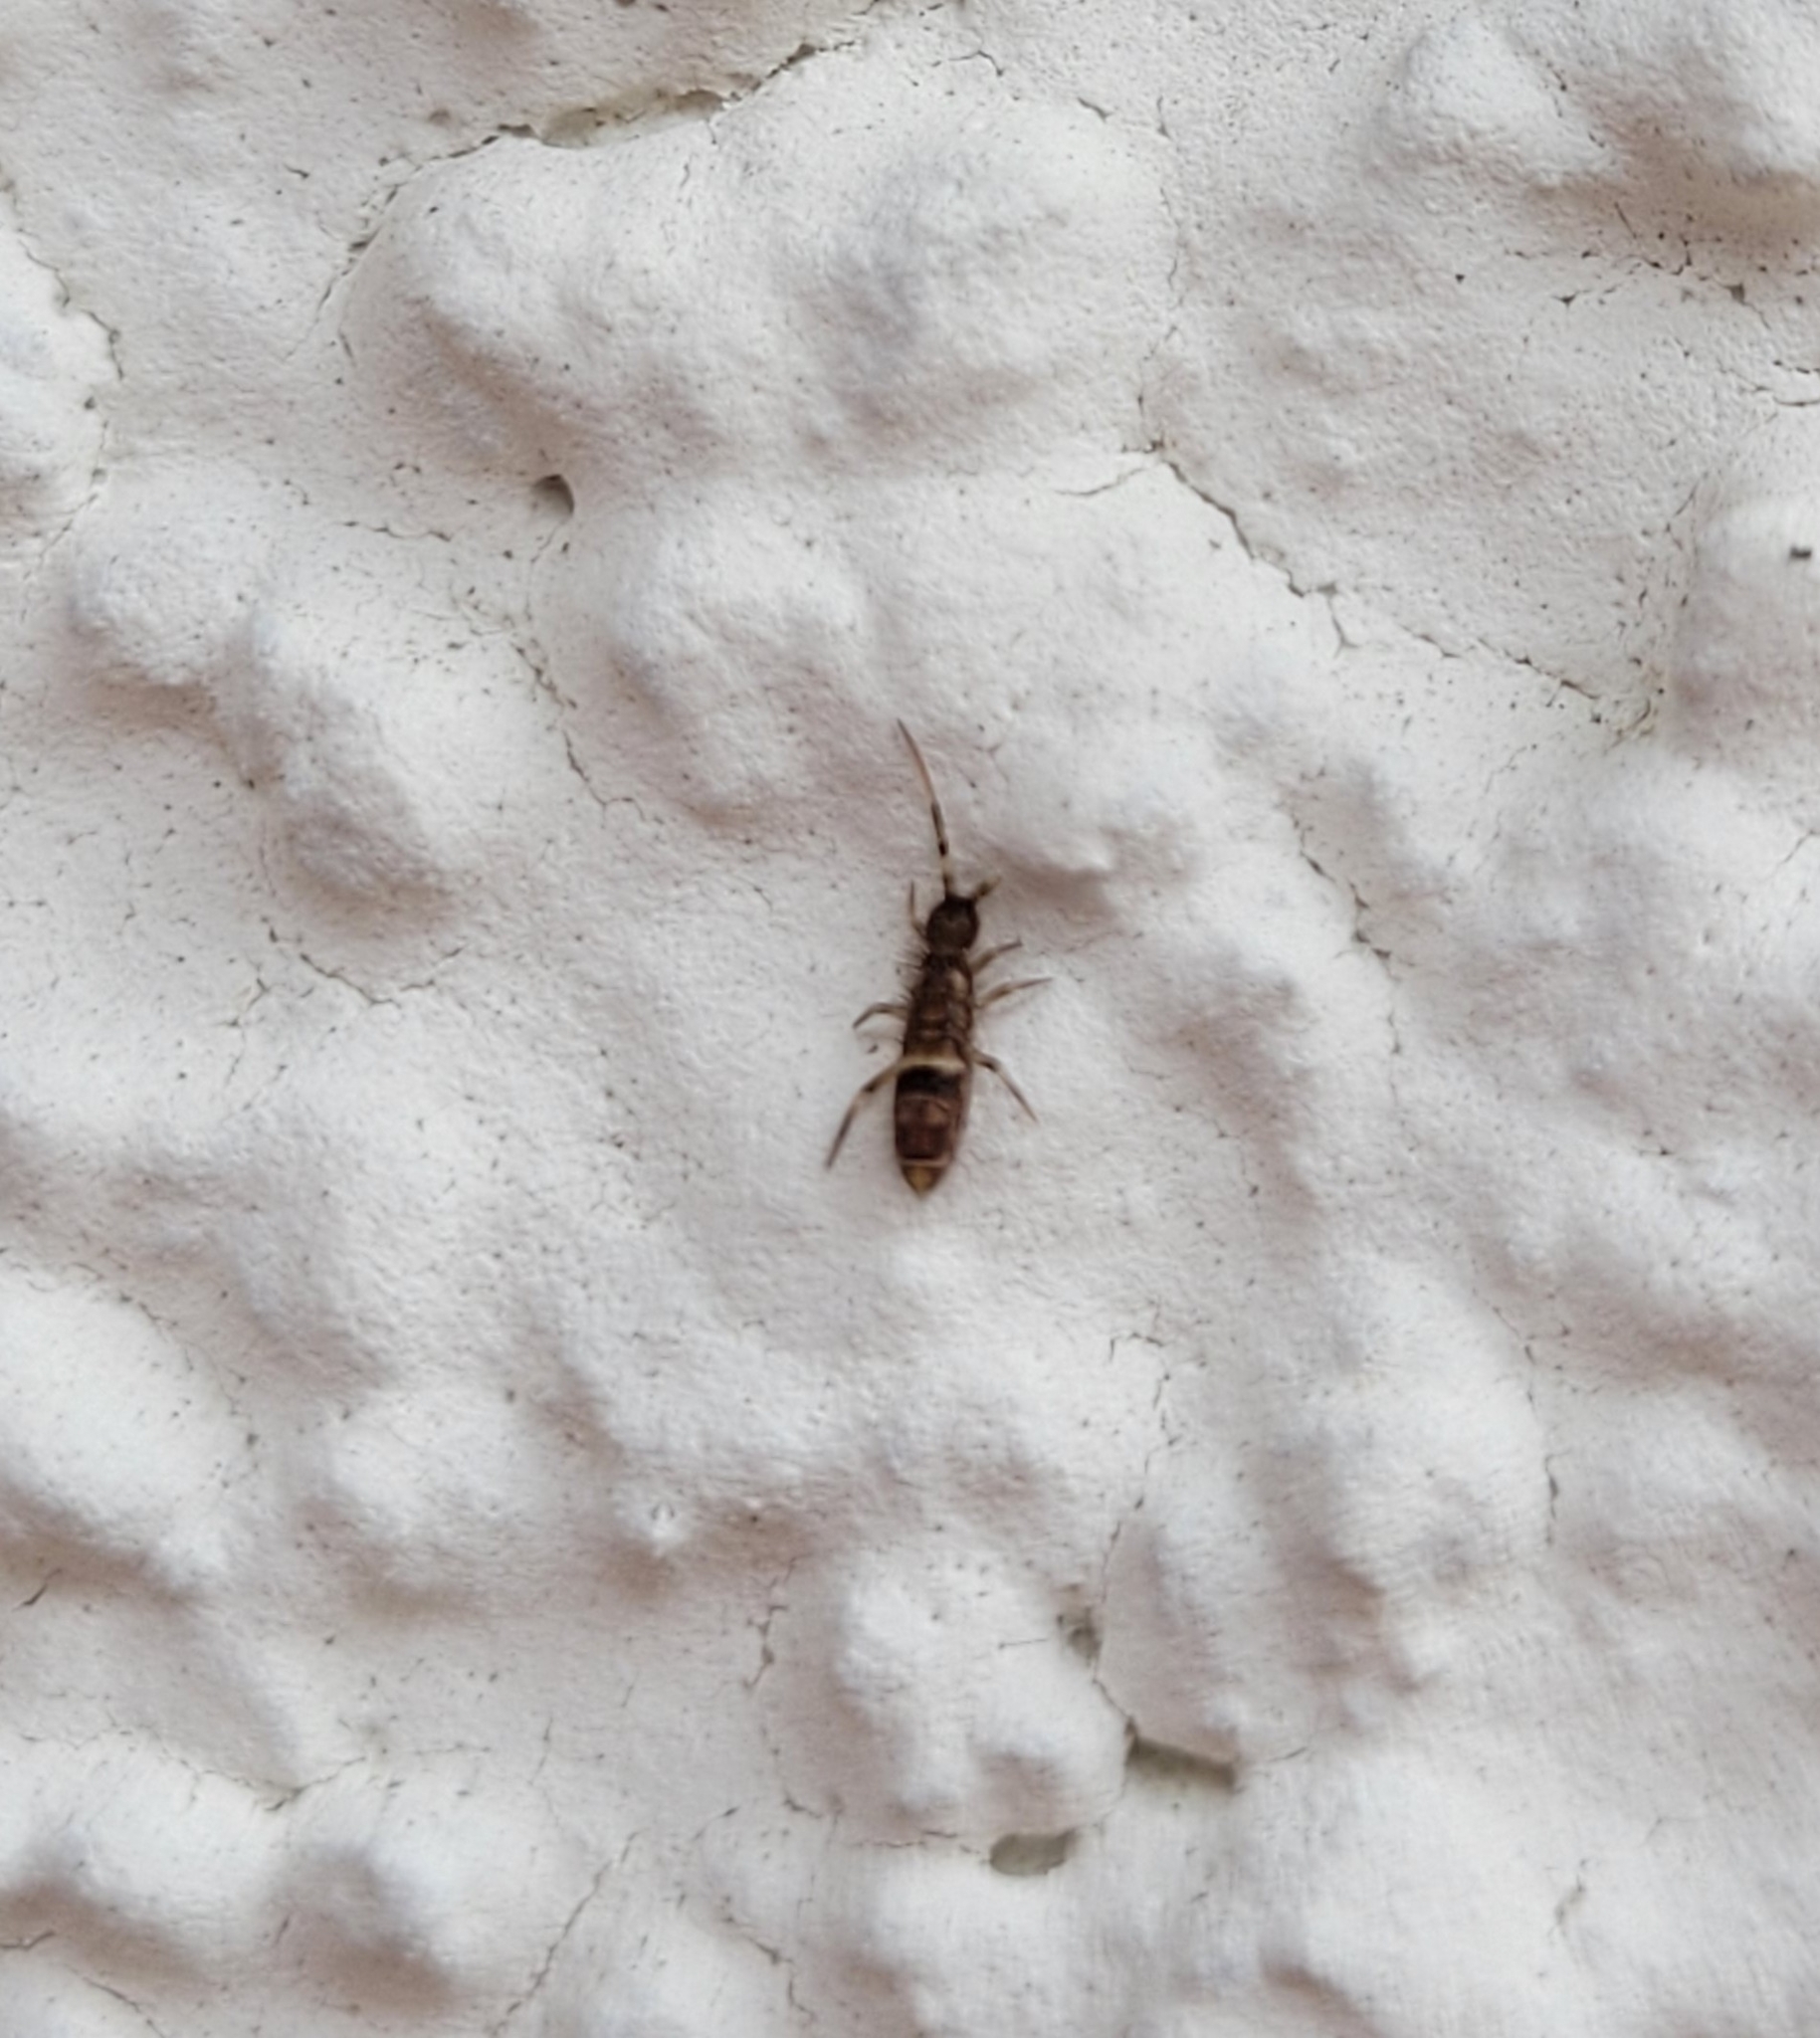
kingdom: Animalia
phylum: Arthropoda
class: Collembola
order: Entomobryomorpha
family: Orchesellidae
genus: Orchesella
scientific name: Orchesella cincta
